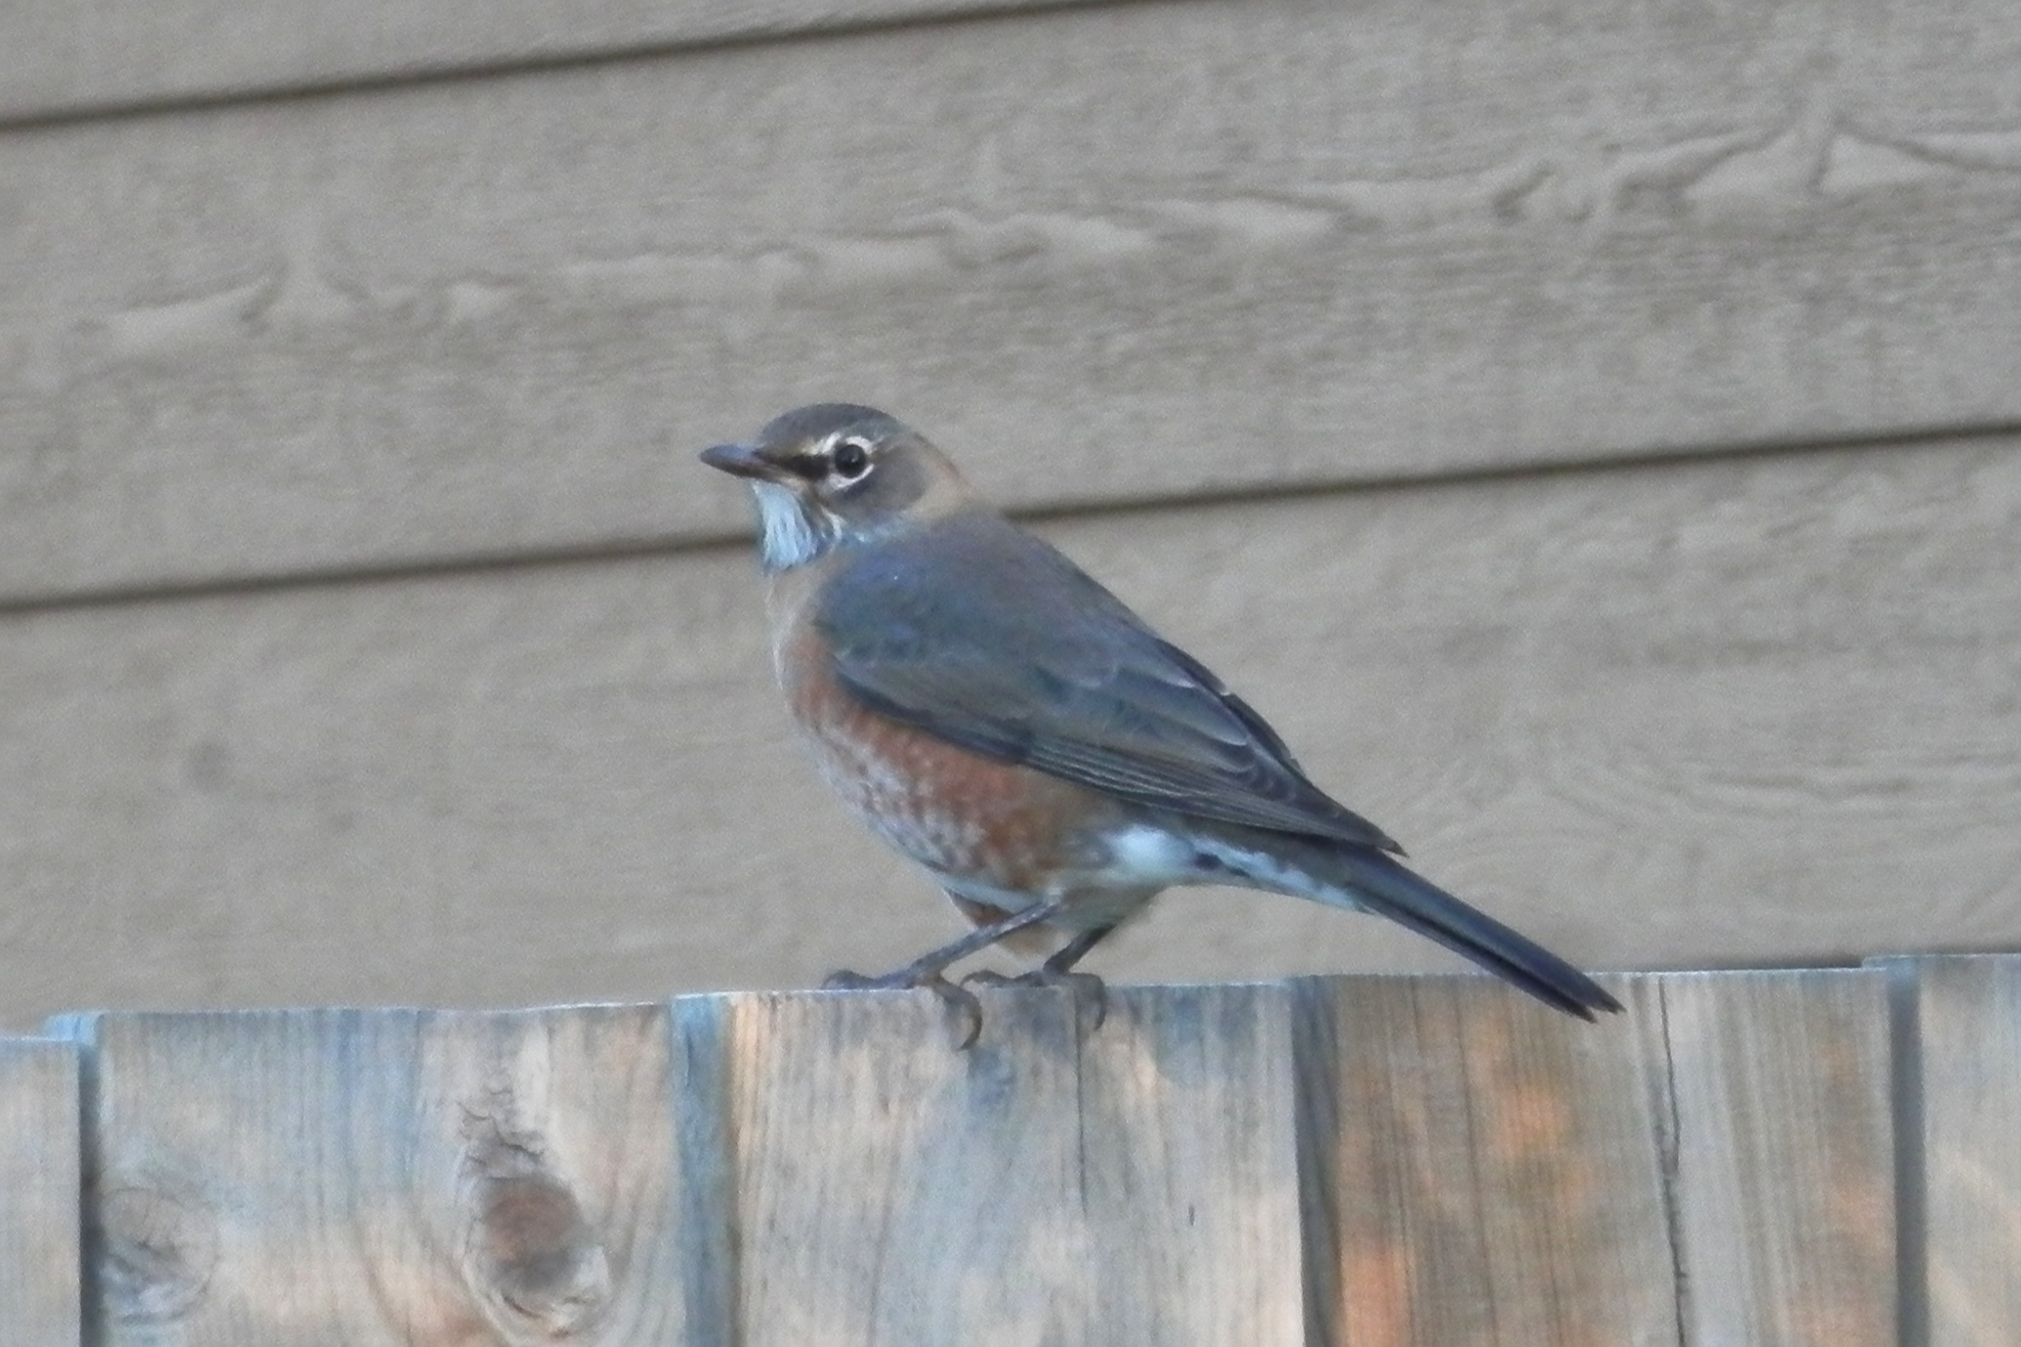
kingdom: Animalia
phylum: Chordata
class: Aves
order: Passeriformes
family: Turdidae
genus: Turdus
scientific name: Turdus migratorius
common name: American robin
